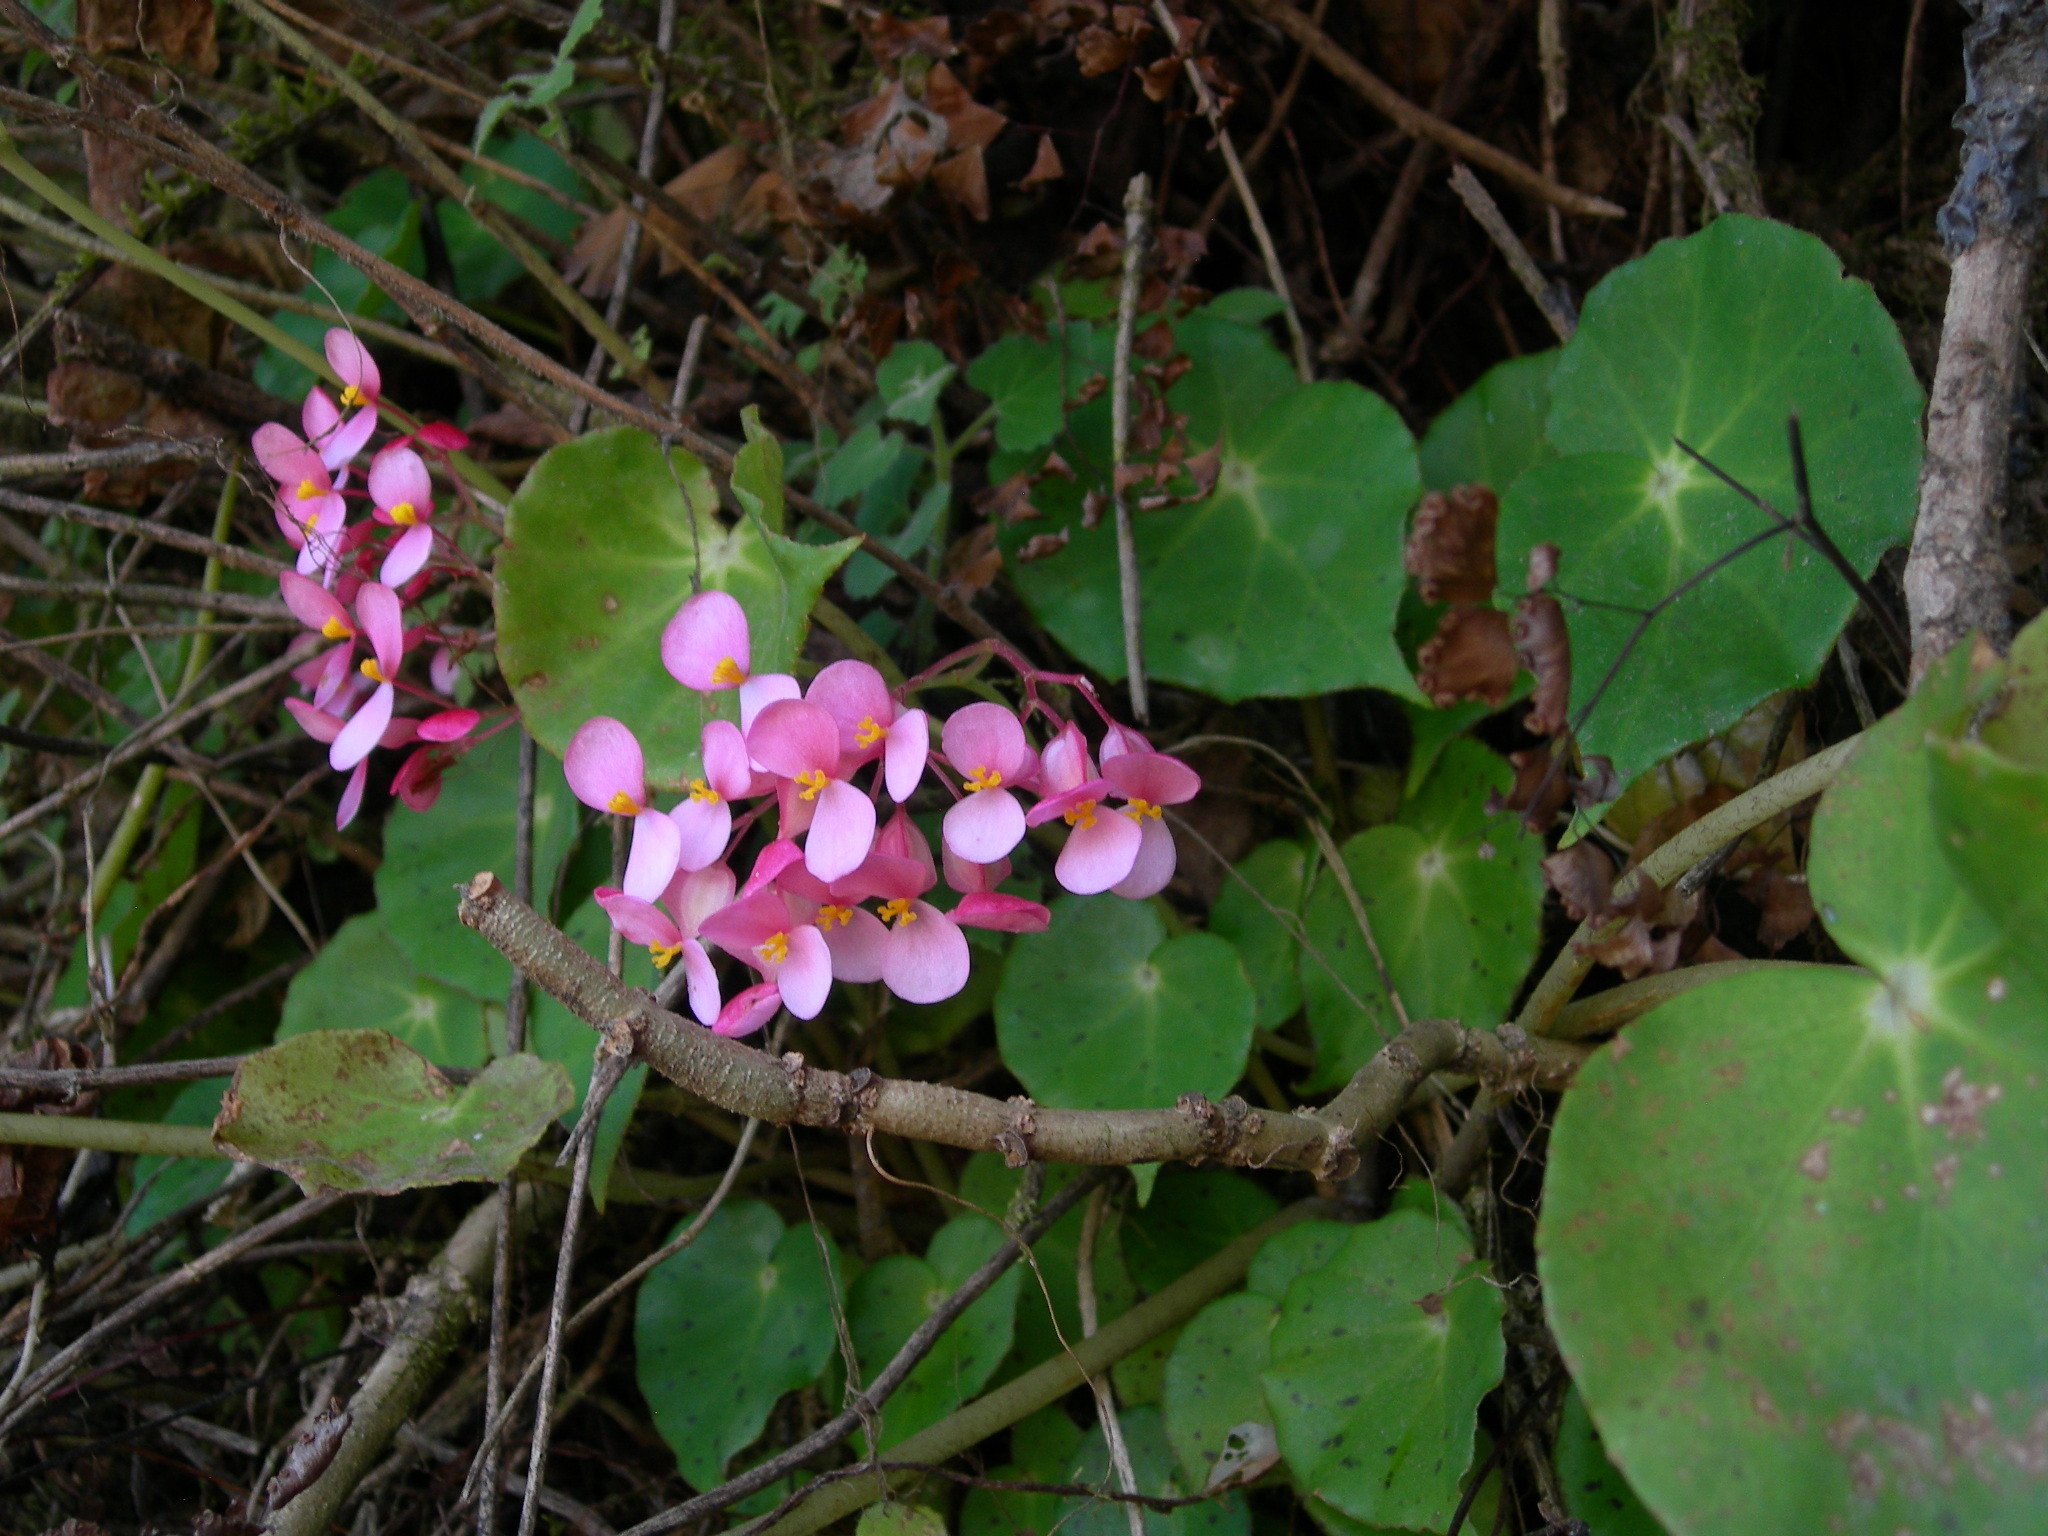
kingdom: Plantae
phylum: Tracheophyta
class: Magnoliopsida
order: Cucurbitales
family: Begoniaceae
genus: Begonia
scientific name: Begonia motozintlensis
